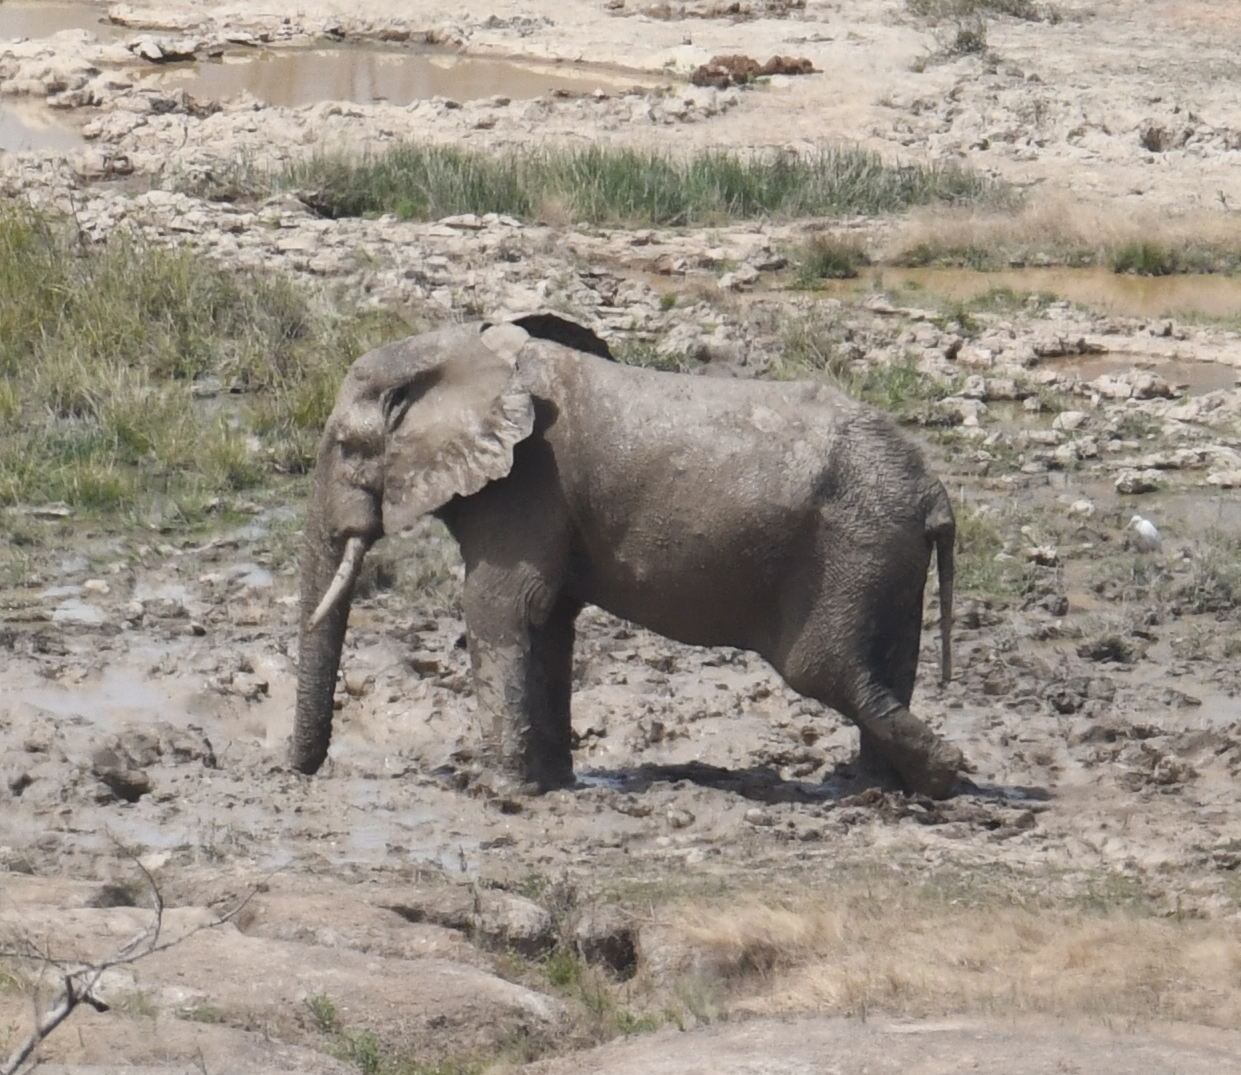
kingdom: Animalia
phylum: Chordata
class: Mammalia
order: Proboscidea
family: Elephantidae
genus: Loxodonta
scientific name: Loxodonta africana
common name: African elephant
